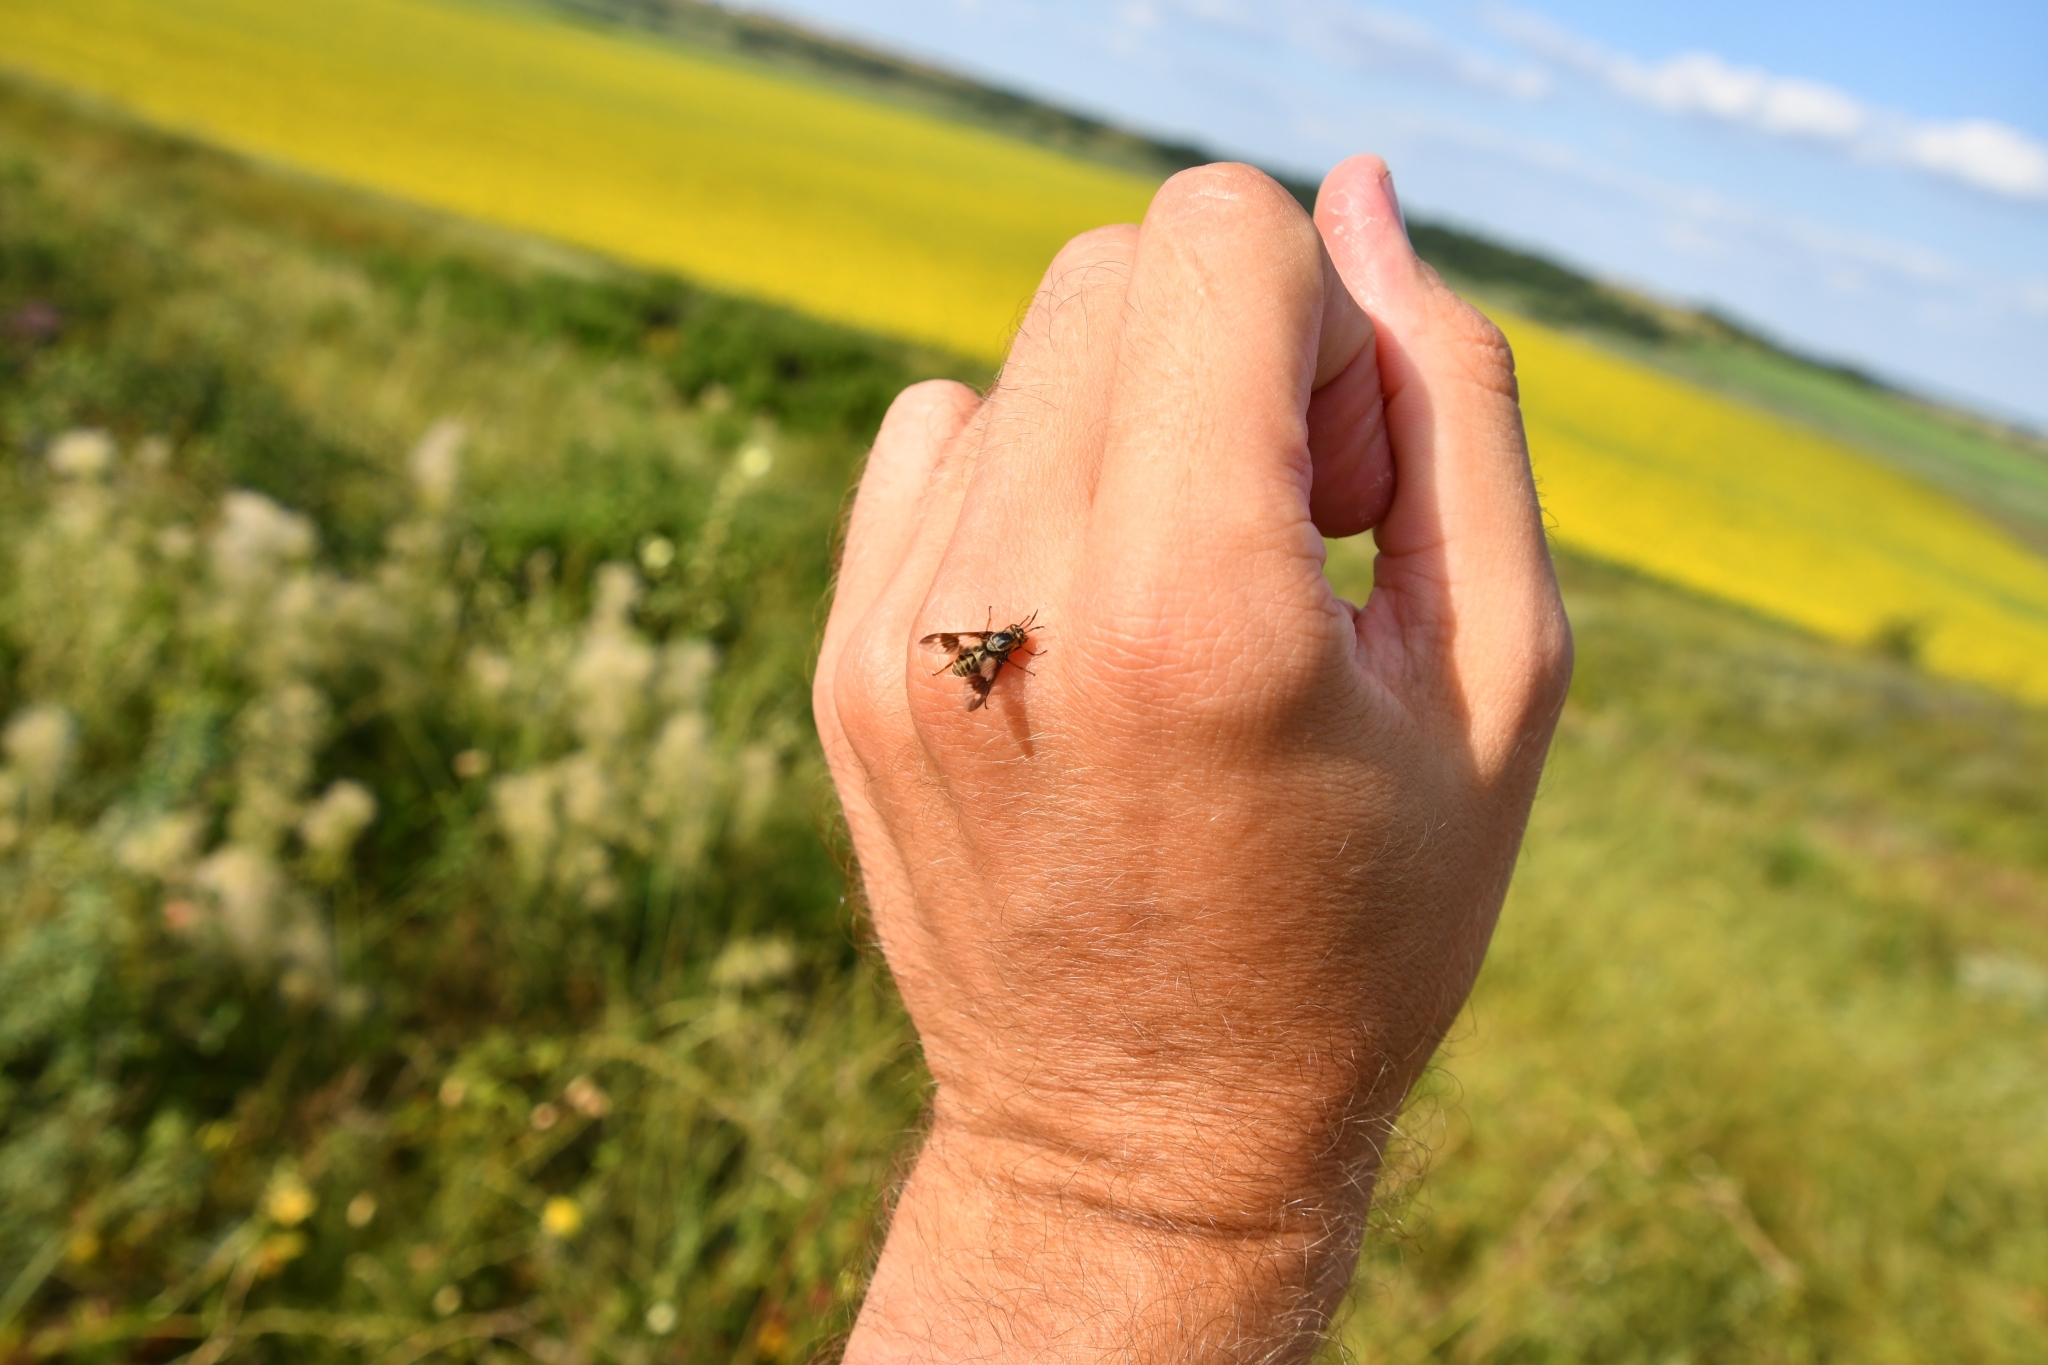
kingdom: Animalia
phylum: Arthropoda
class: Insecta
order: Diptera
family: Tabanidae
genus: Chrysops
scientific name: Chrysops relictus
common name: Twin-lobed deerfly
